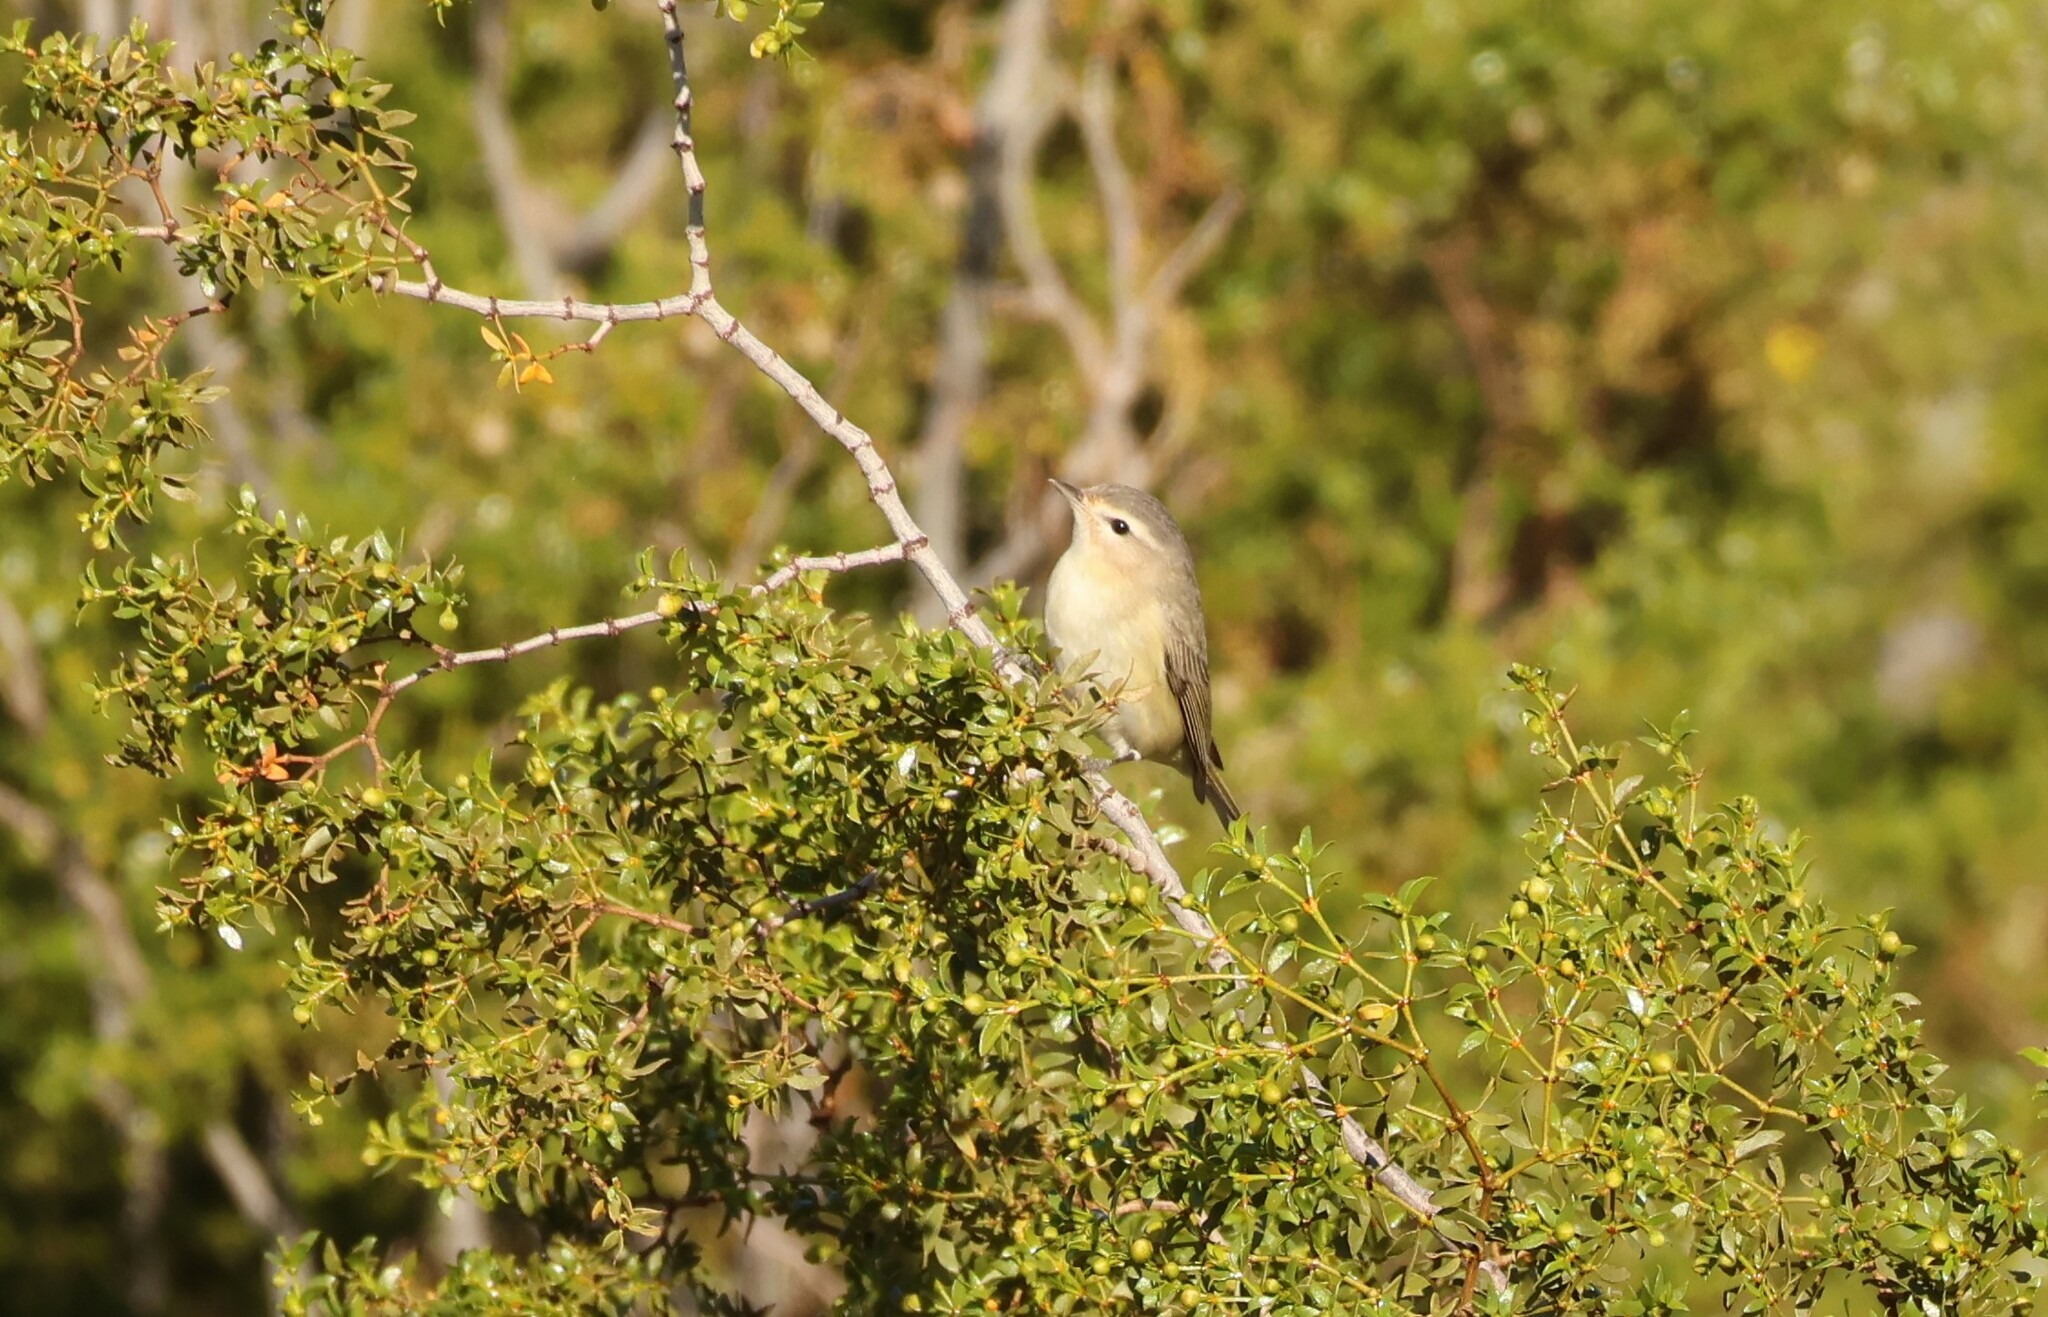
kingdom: Animalia
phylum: Chordata
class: Aves
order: Passeriformes
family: Vireonidae
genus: Vireo
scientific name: Vireo gilvus
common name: Warbling vireo
